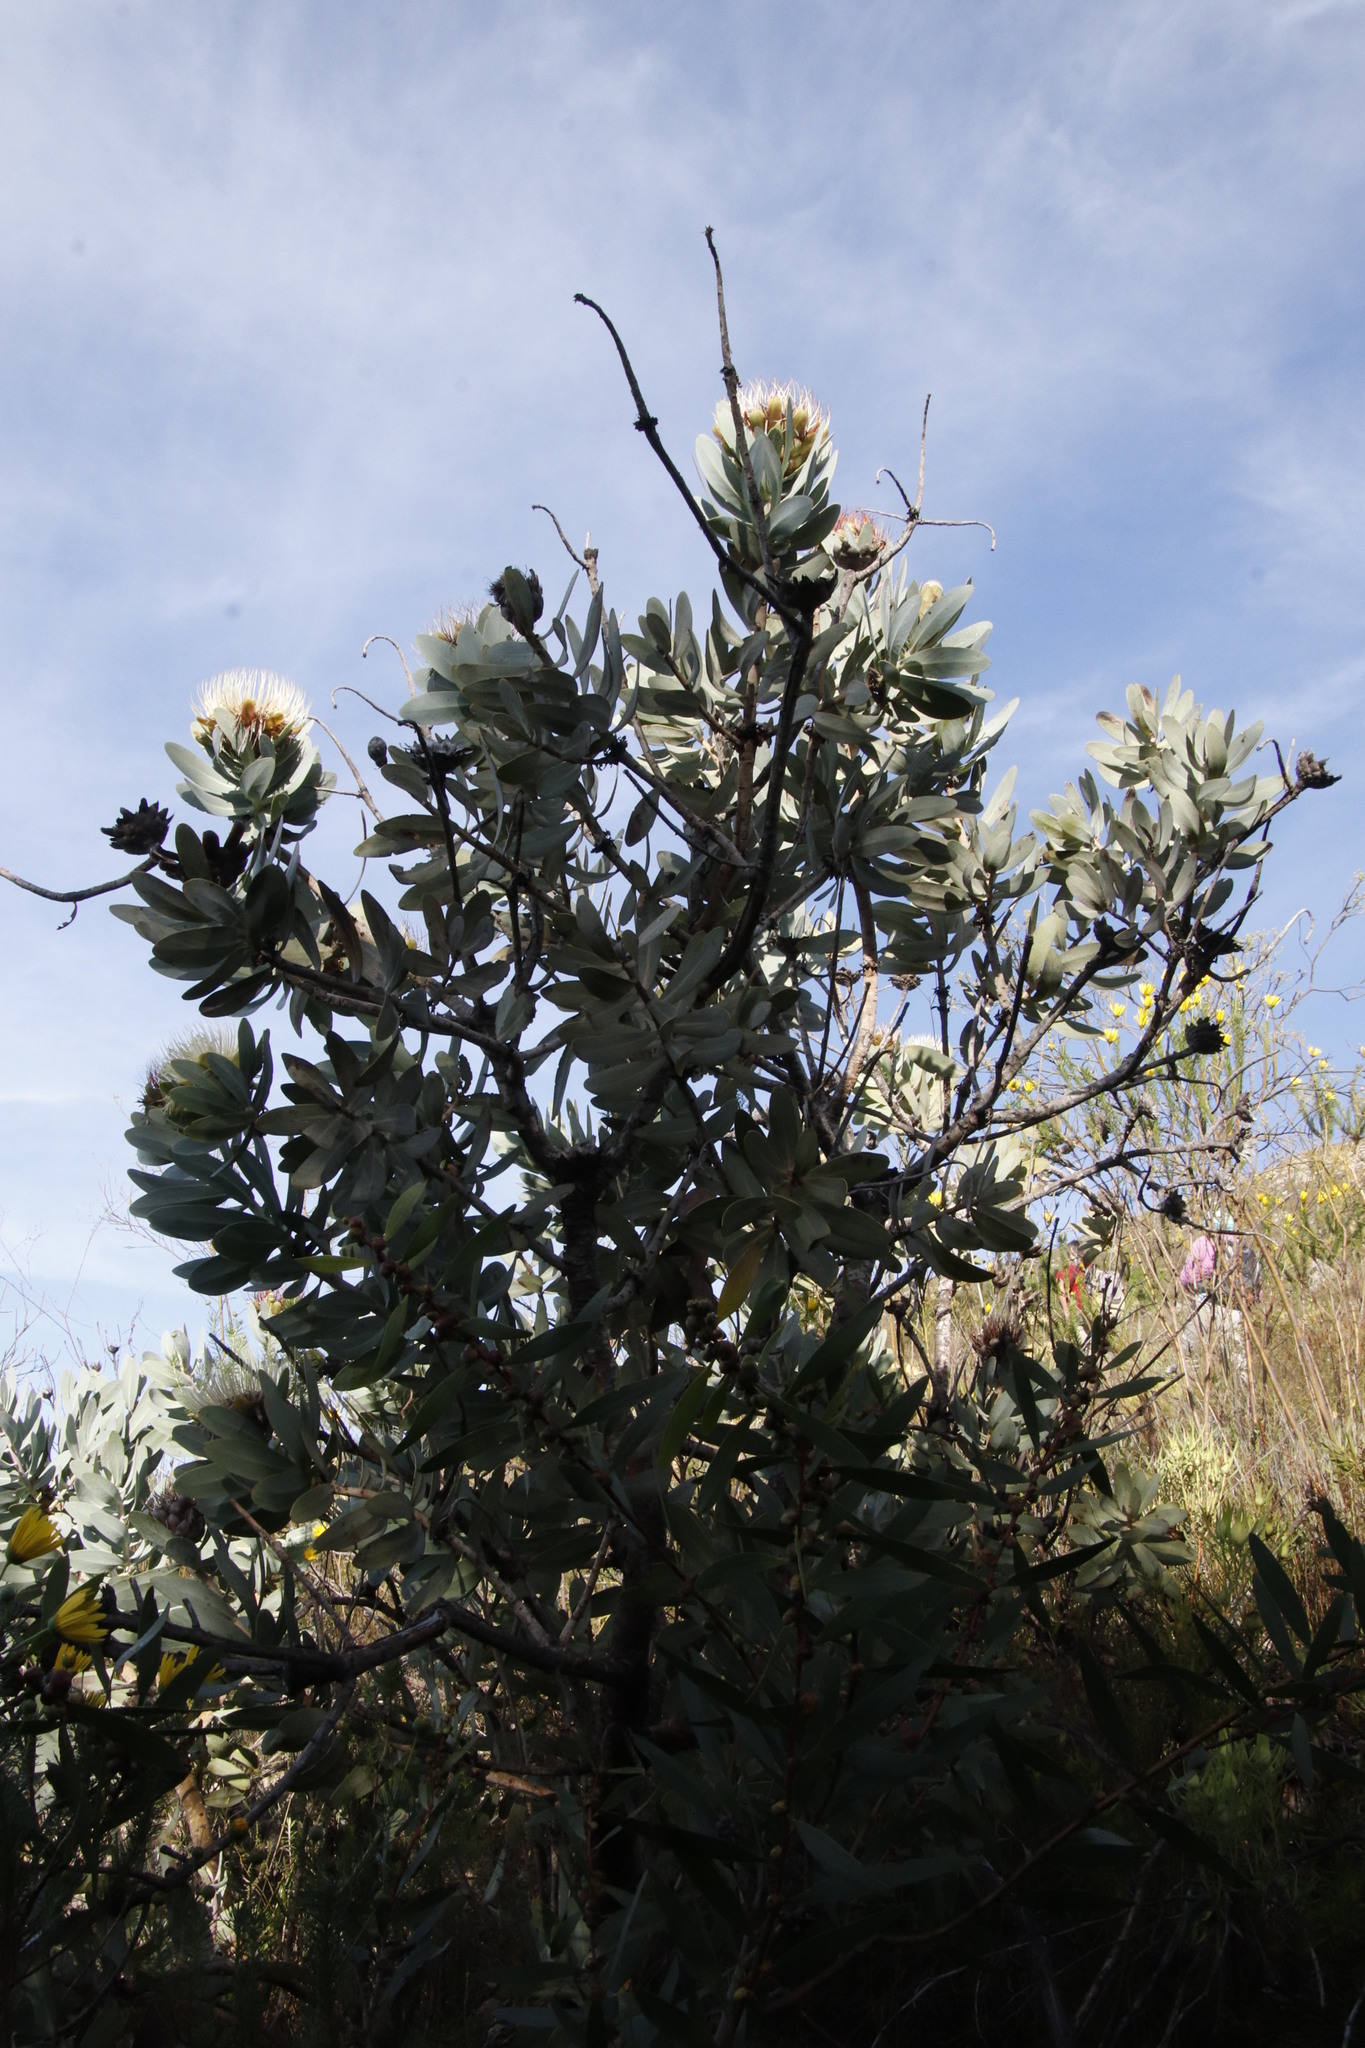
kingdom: Plantae
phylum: Tracheophyta
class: Magnoliopsida
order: Proteales
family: Proteaceae
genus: Protea
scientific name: Protea nitida
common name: Tree protea
